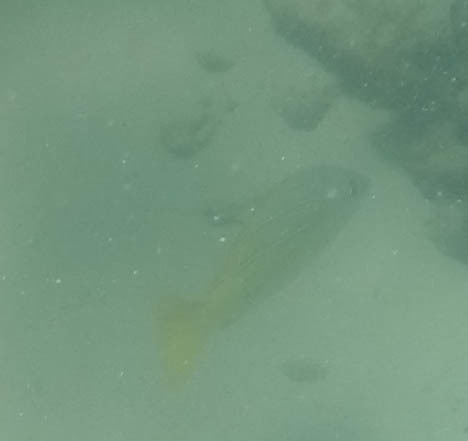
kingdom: Animalia
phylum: Chordata
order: Perciformes
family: Lutjanidae
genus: Lutjanus
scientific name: Lutjanus kasmira
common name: Common bluestripe snapper
